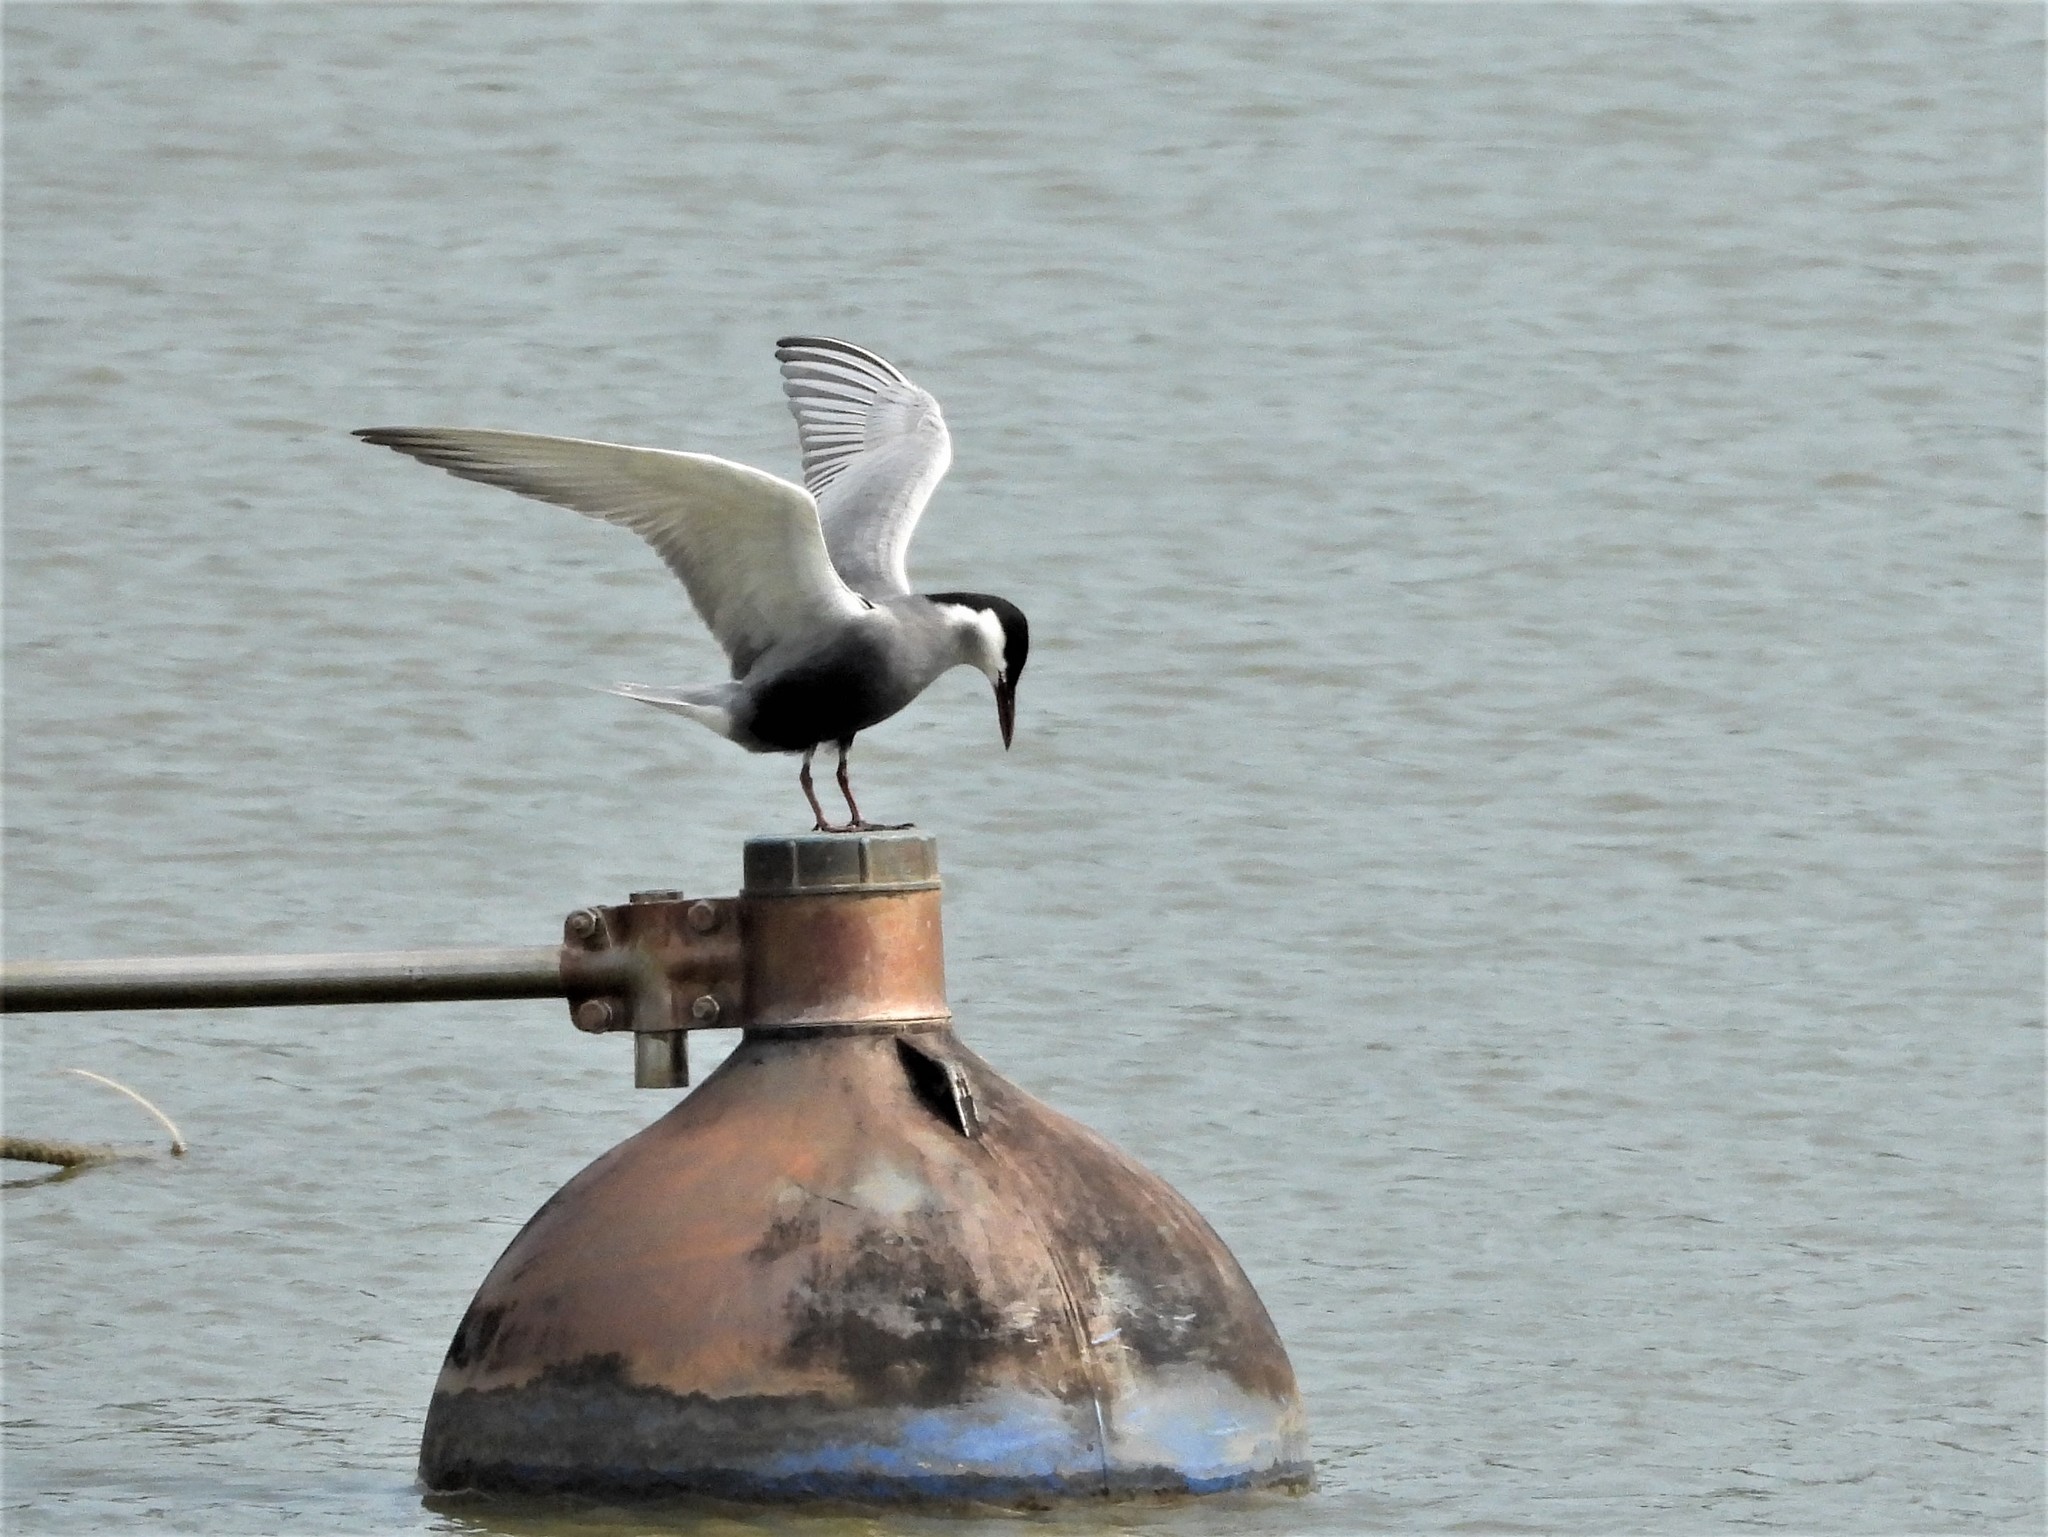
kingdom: Animalia
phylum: Chordata
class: Aves
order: Charadriiformes
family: Laridae
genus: Chlidonias
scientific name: Chlidonias hybrida
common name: Whiskered tern
